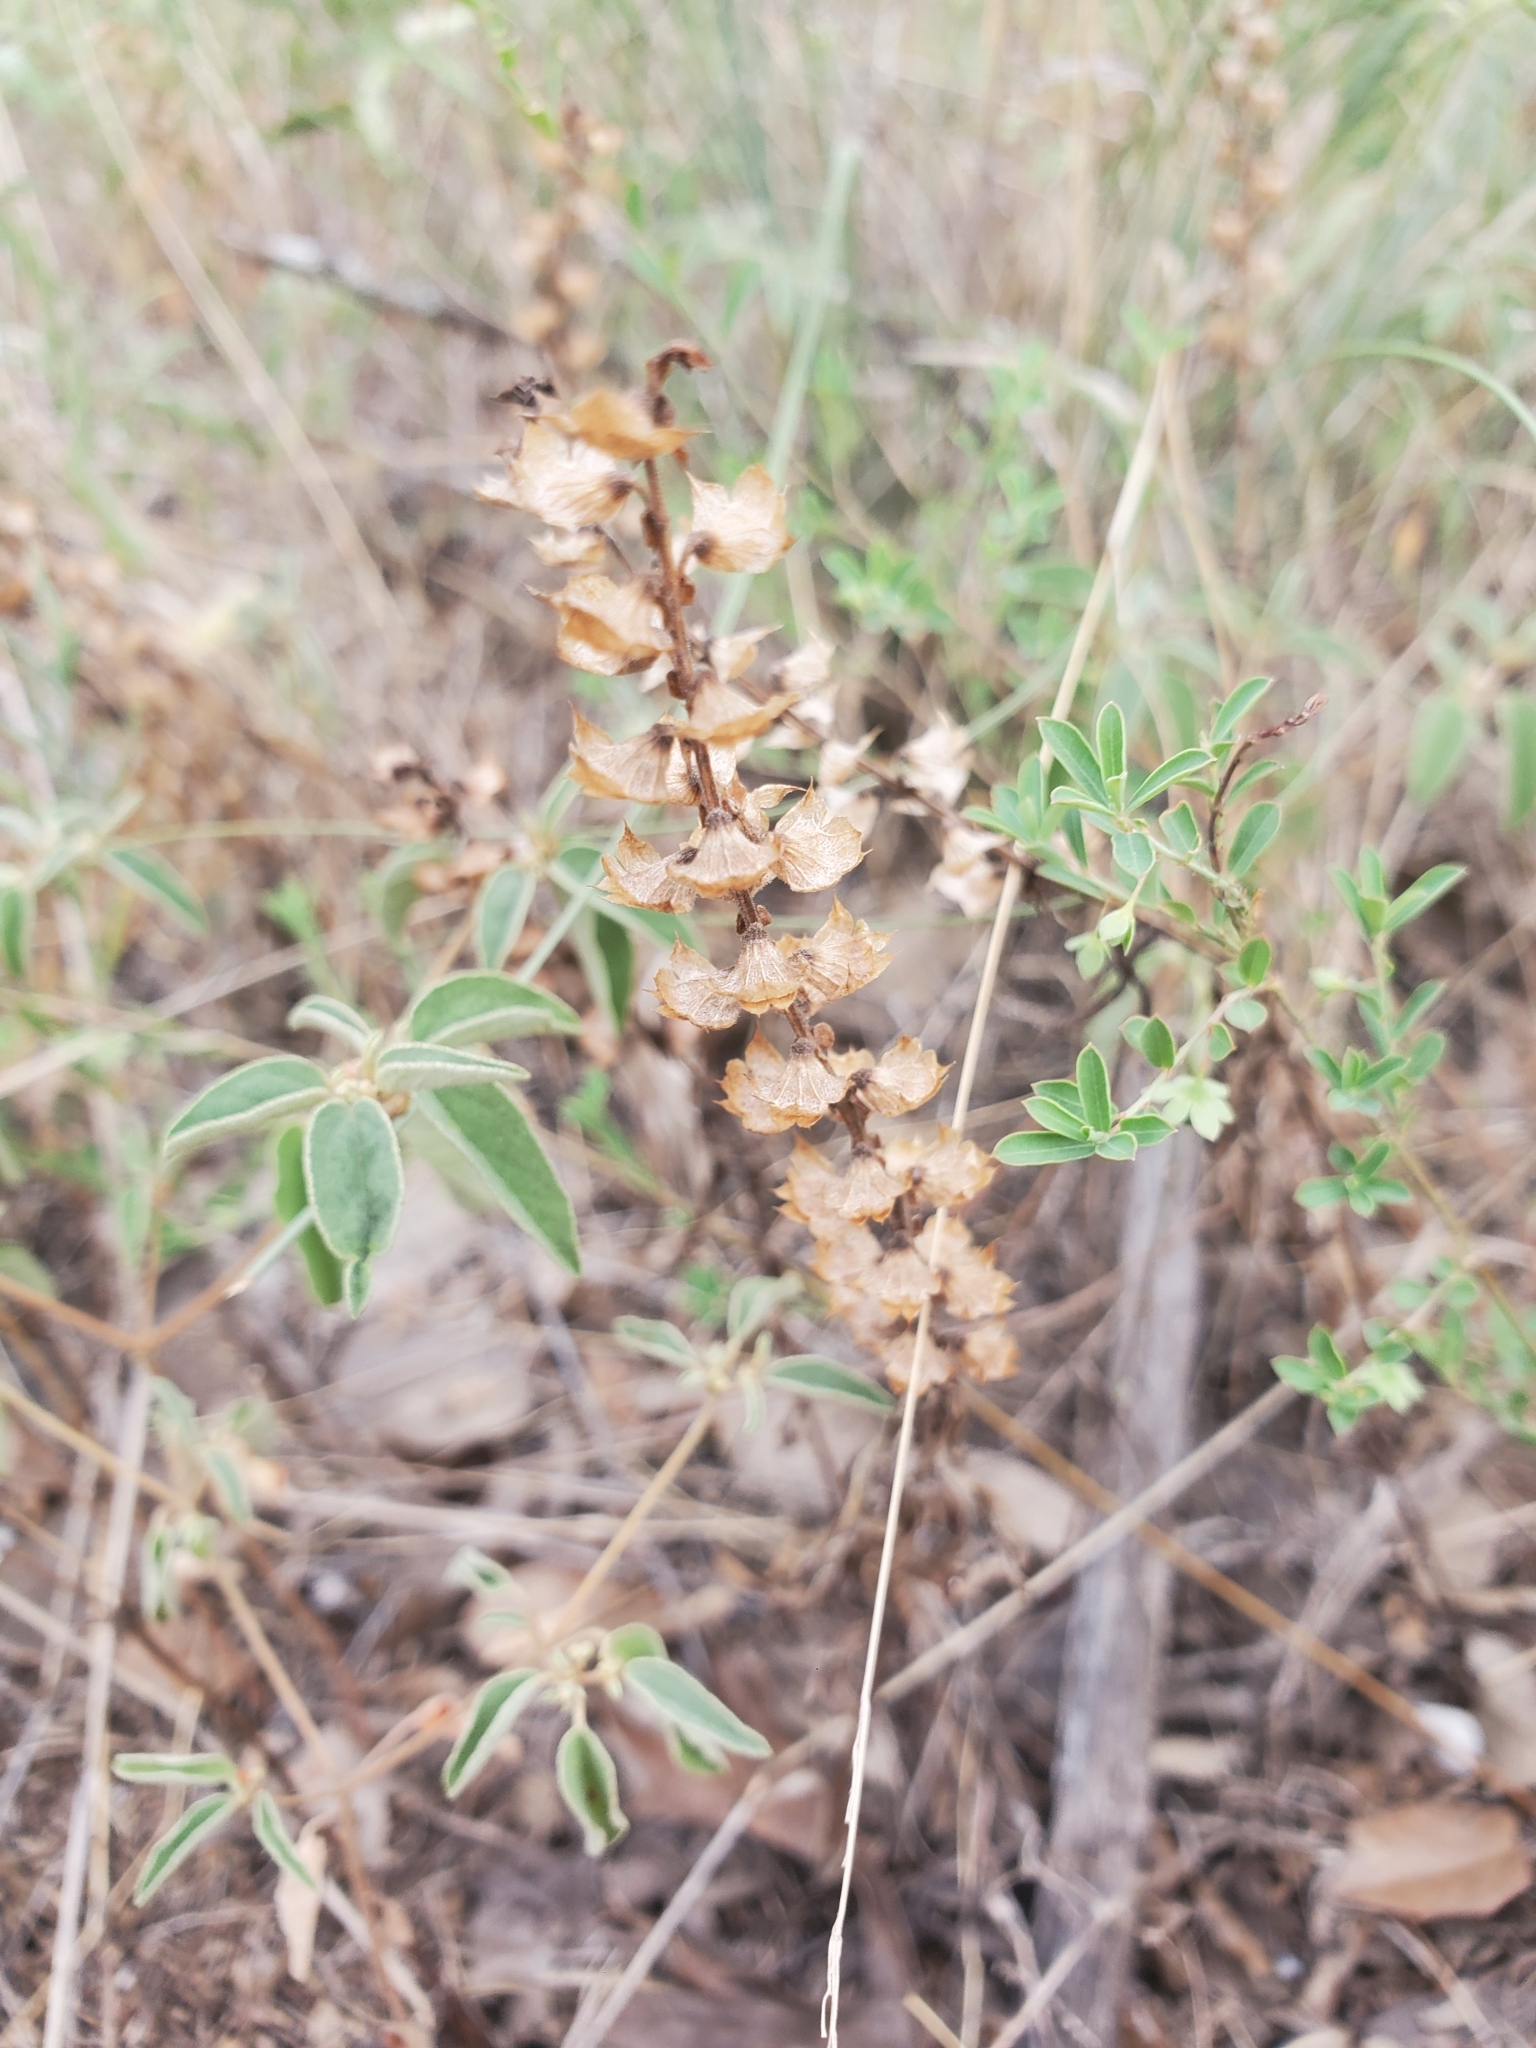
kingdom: Plantae
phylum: Tracheophyta
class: Magnoliopsida
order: Lamiales
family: Lamiaceae
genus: Warnockia
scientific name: Warnockia scutellarioides
